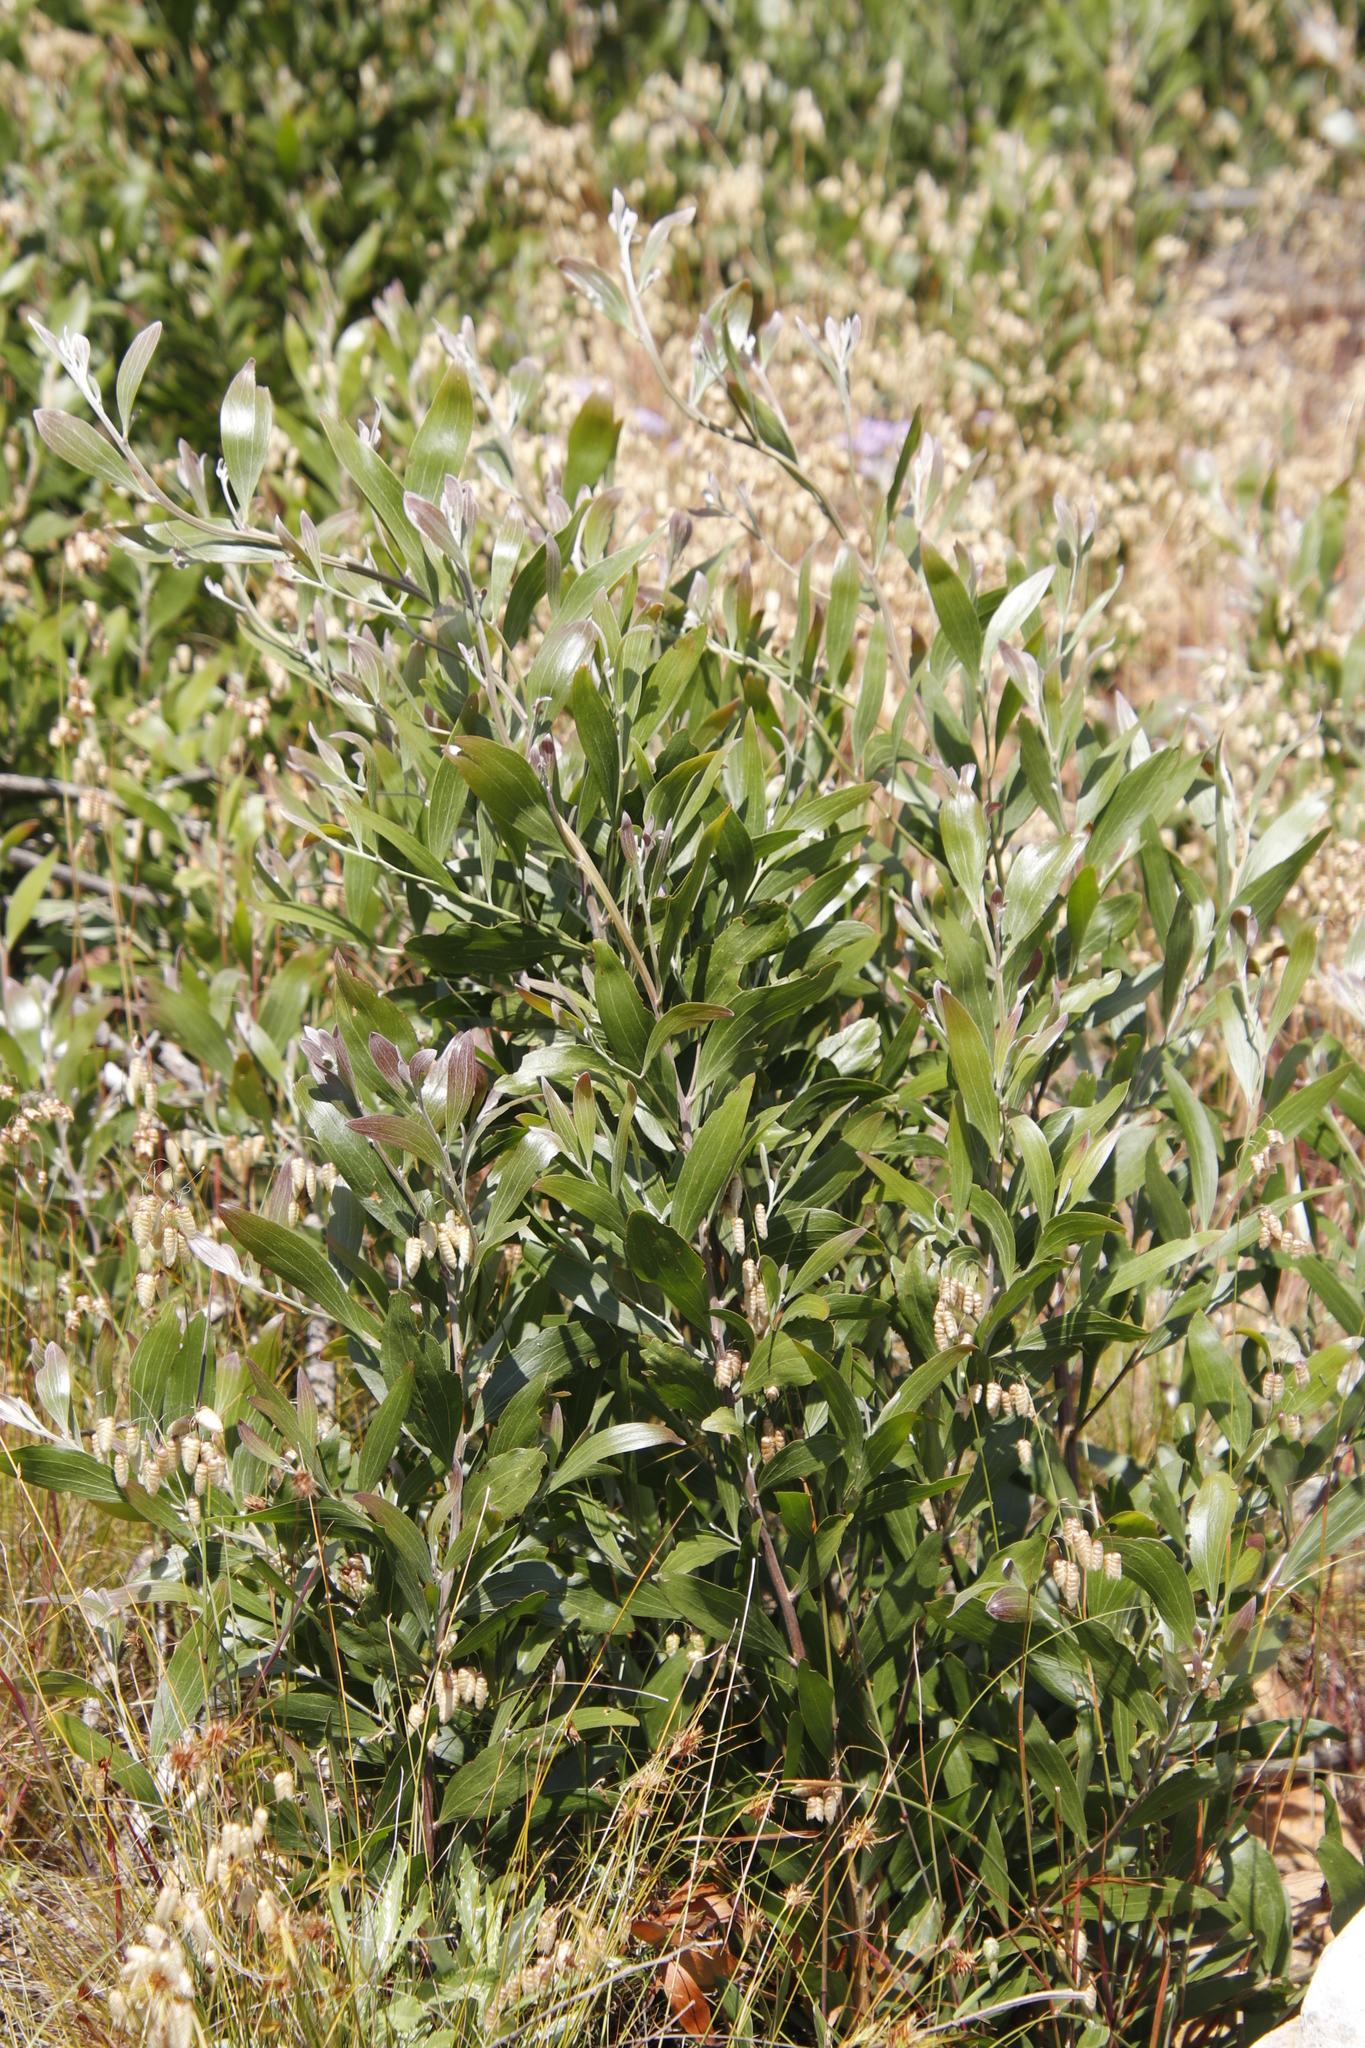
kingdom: Plantae
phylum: Tracheophyta
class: Magnoliopsida
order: Fabales
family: Fabaceae
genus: Acacia
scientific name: Acacia melanoxylon
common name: Blackwood
